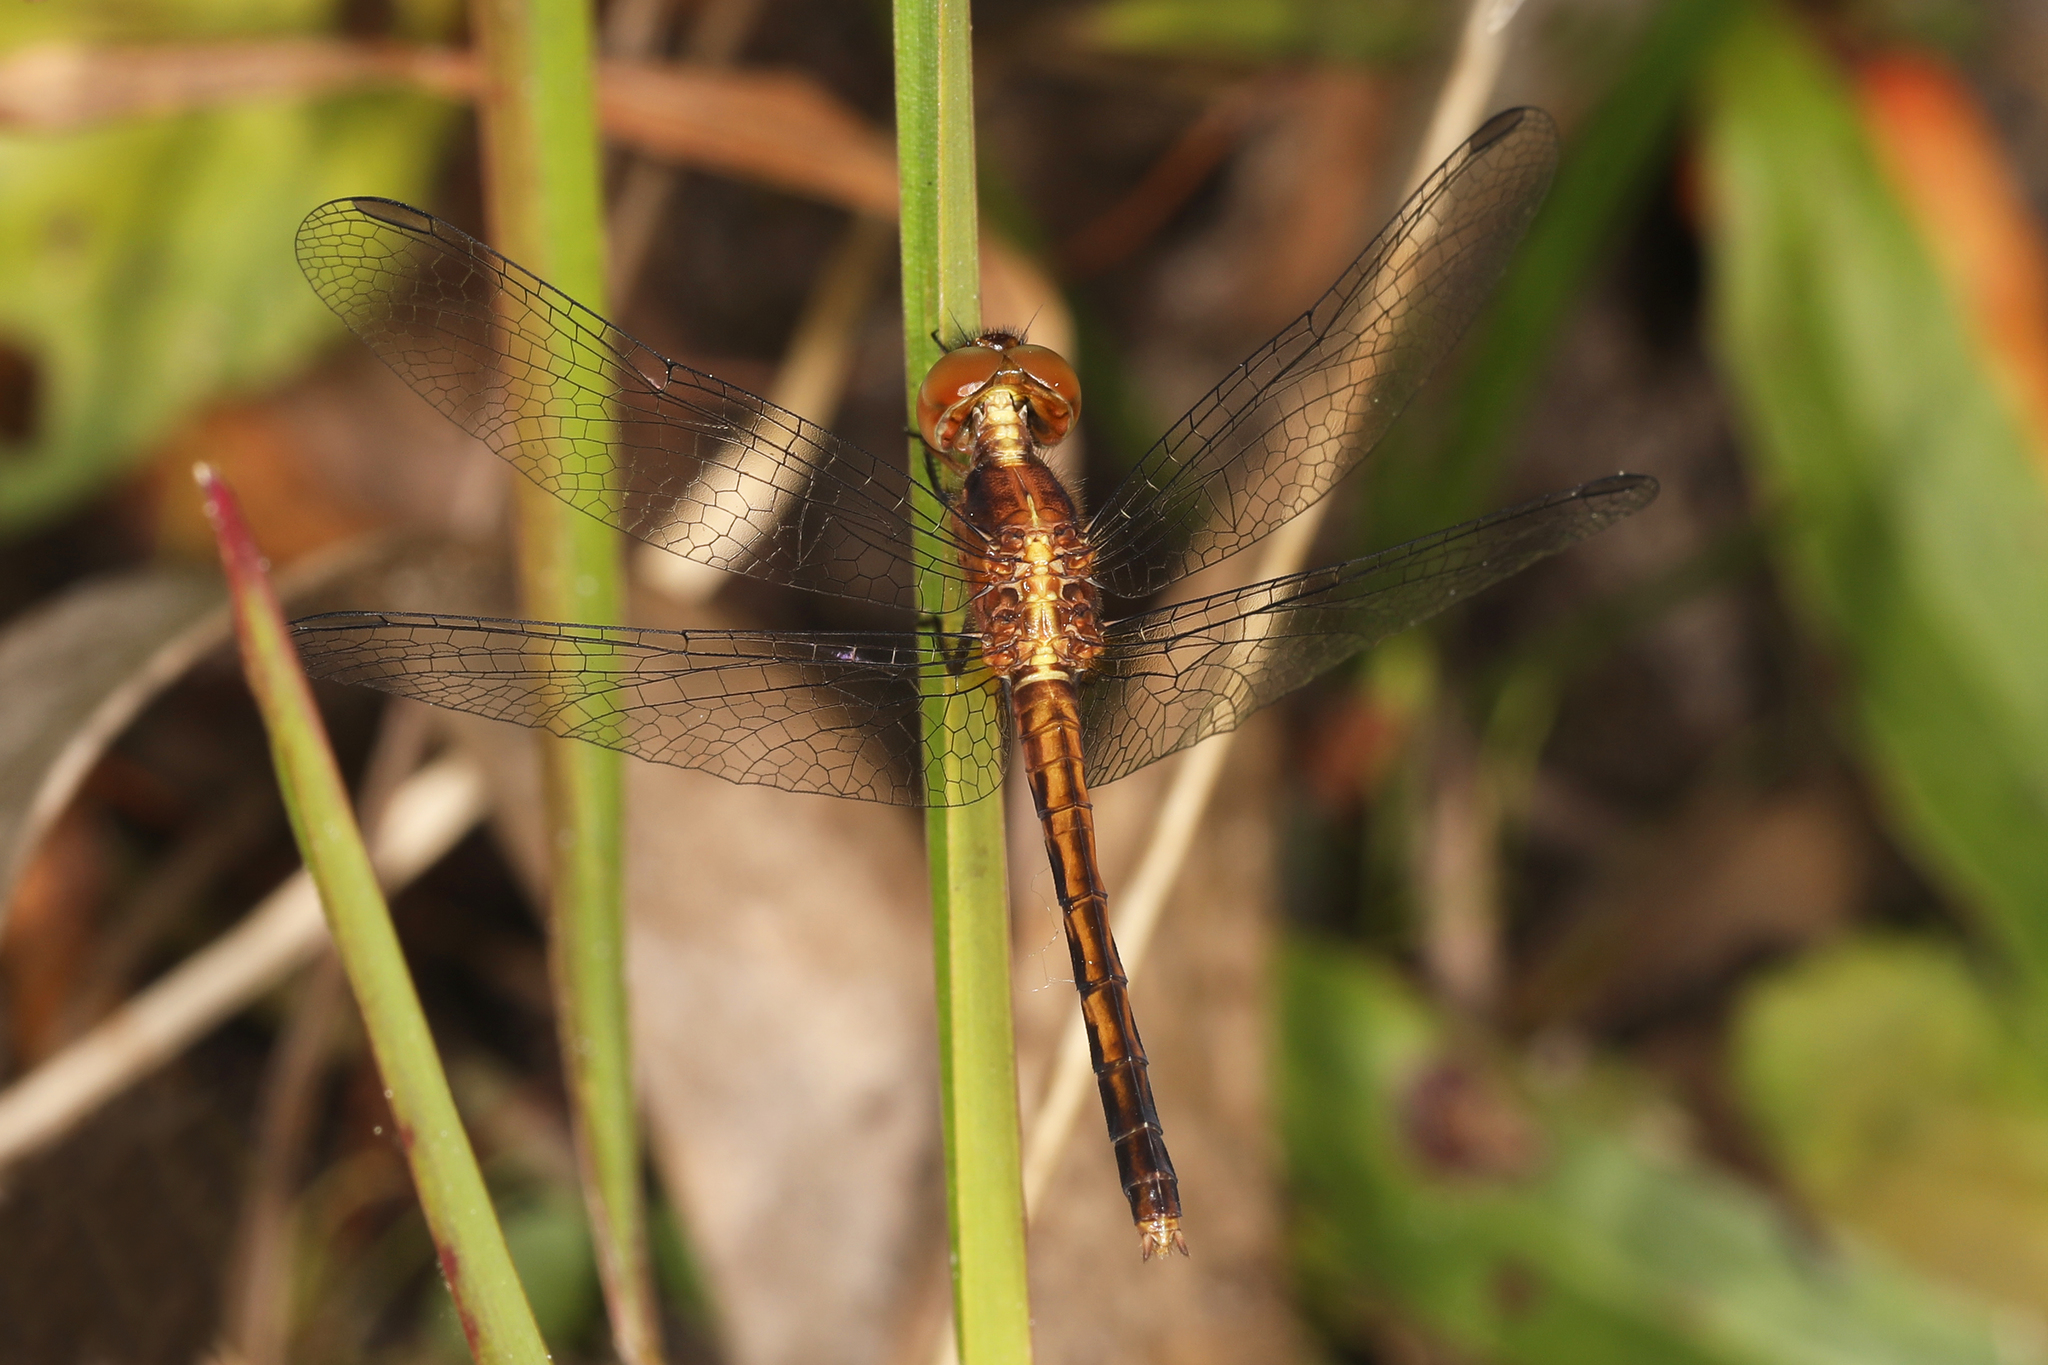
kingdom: Animalia
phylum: Arthropoda
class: Insecta
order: Odonata
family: Libellulidae
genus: Erythrodiplax
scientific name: Erythrodiplax minuscula
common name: Little blue dragonlet
